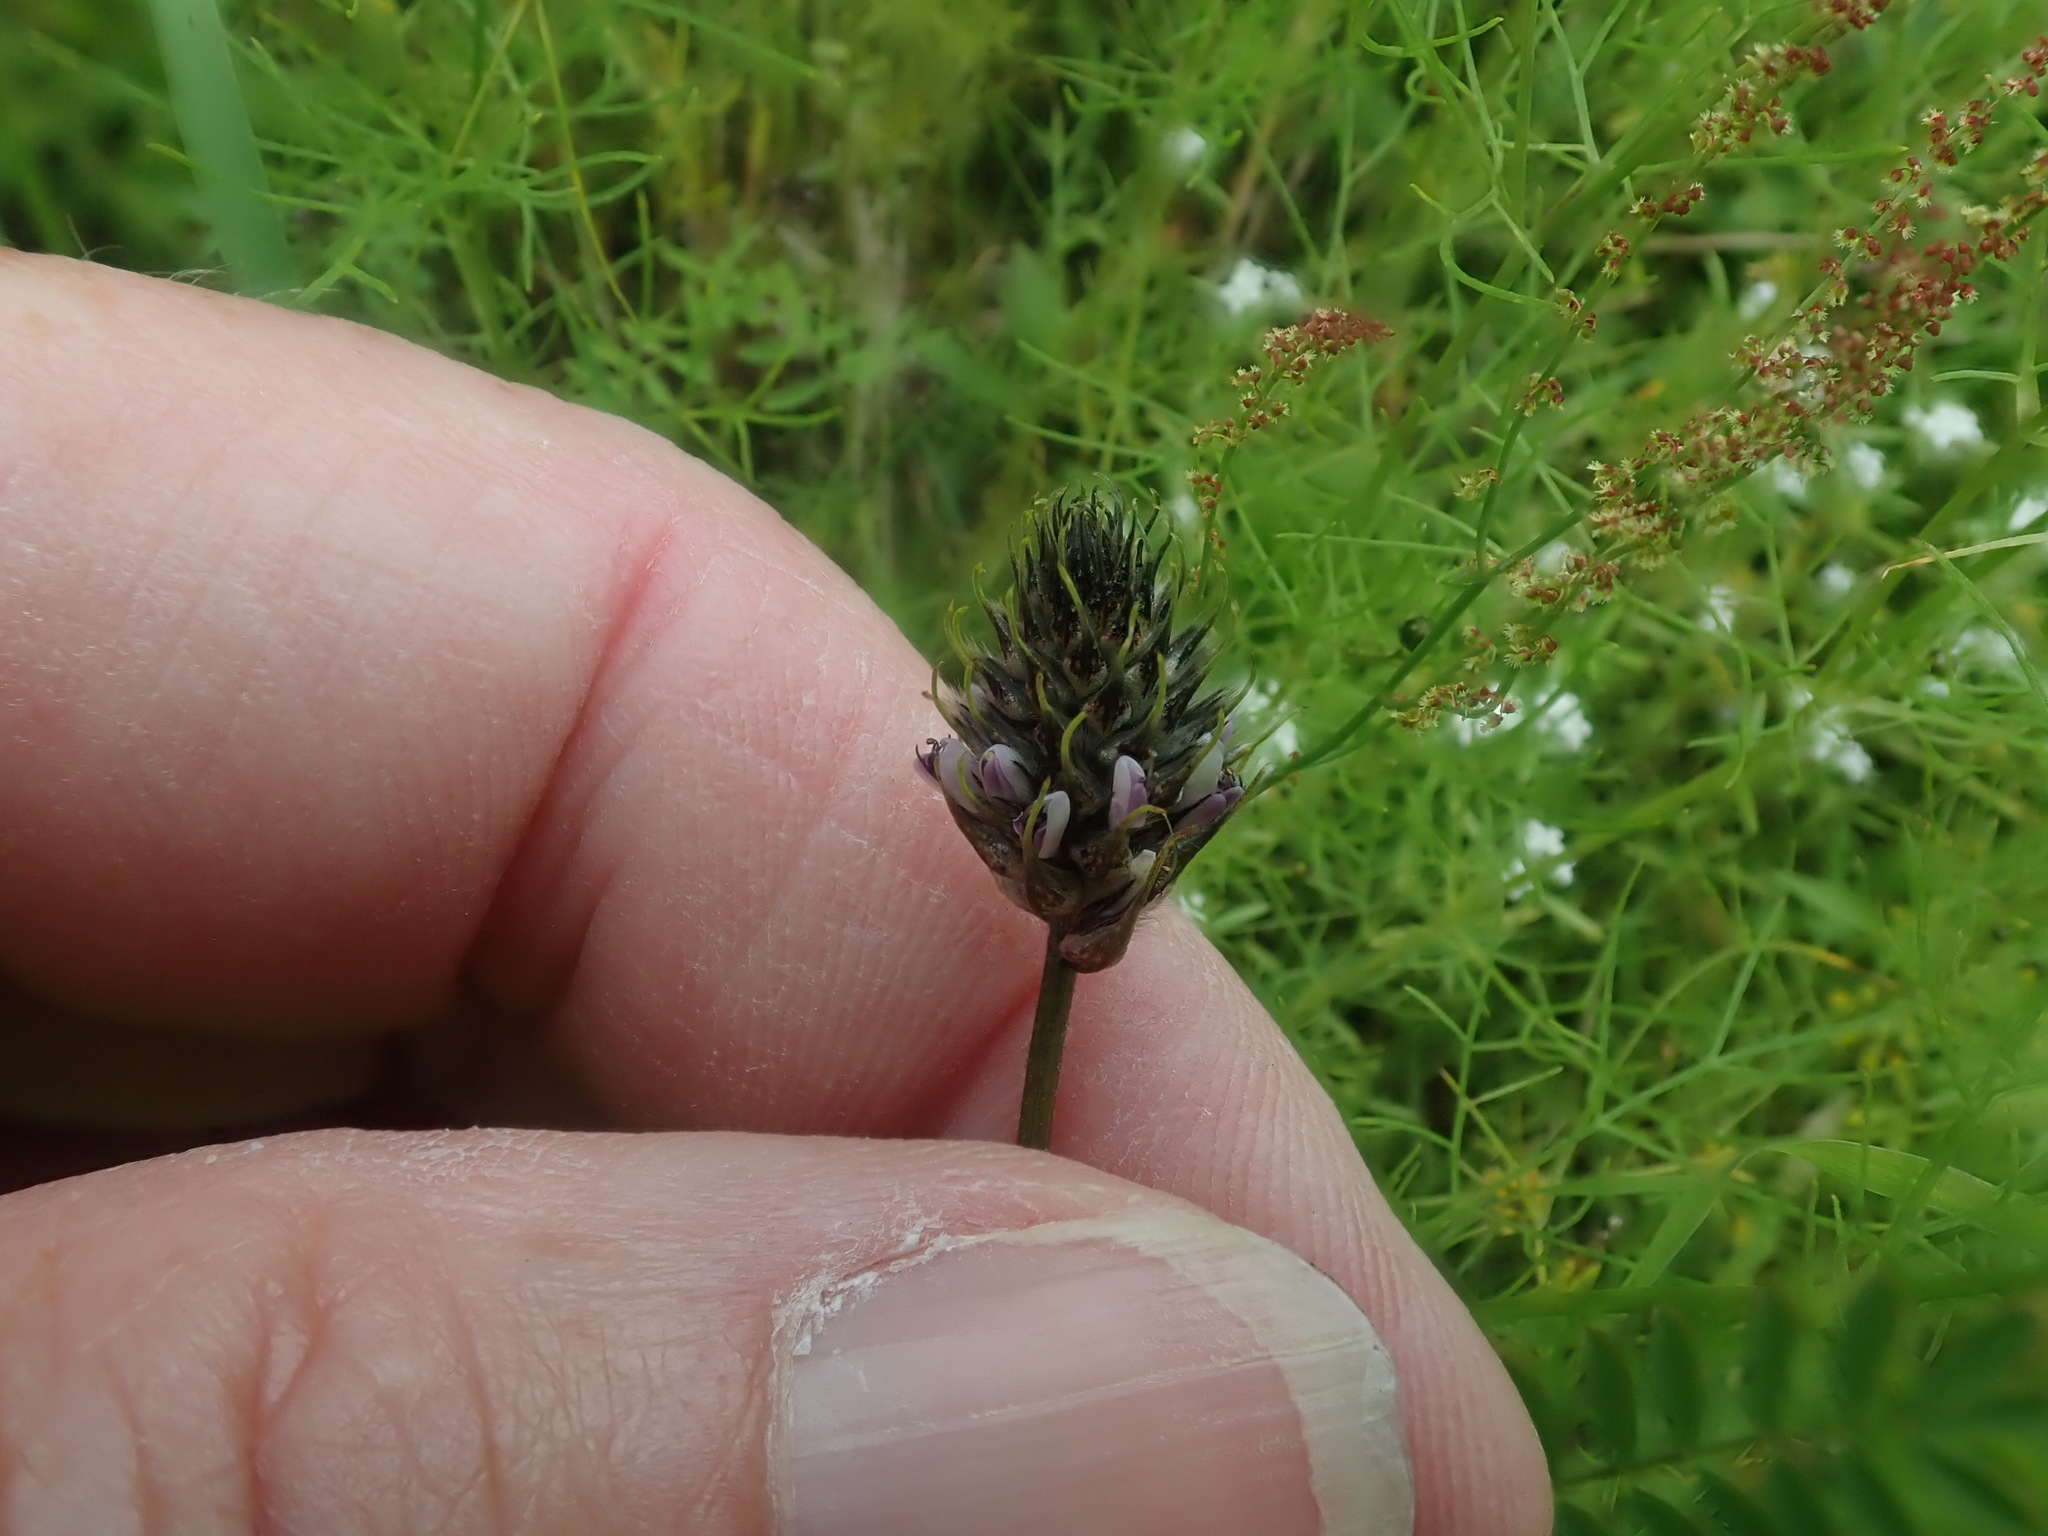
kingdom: Plantae
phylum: Tracheophyta
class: Magnoliopsida
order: Fabales
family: Fabaceae
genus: Dalea
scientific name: Dalea leporina
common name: Foxtail dalea
